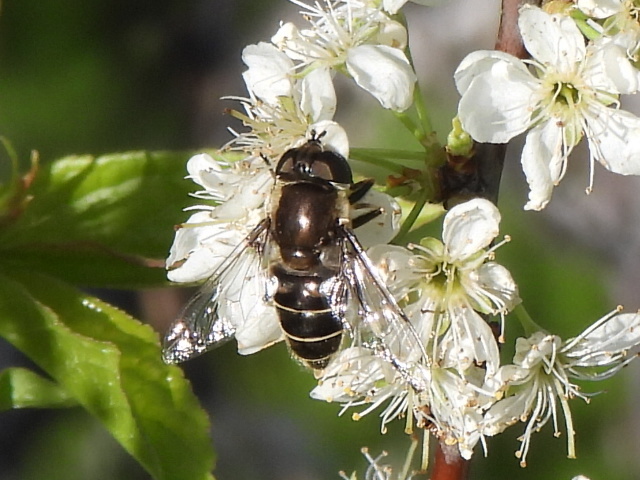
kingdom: Animalia
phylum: Arthropoda
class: Insecta
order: Diptera
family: Syrphidae
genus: Eristalis
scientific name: Eristalis dimidiata
